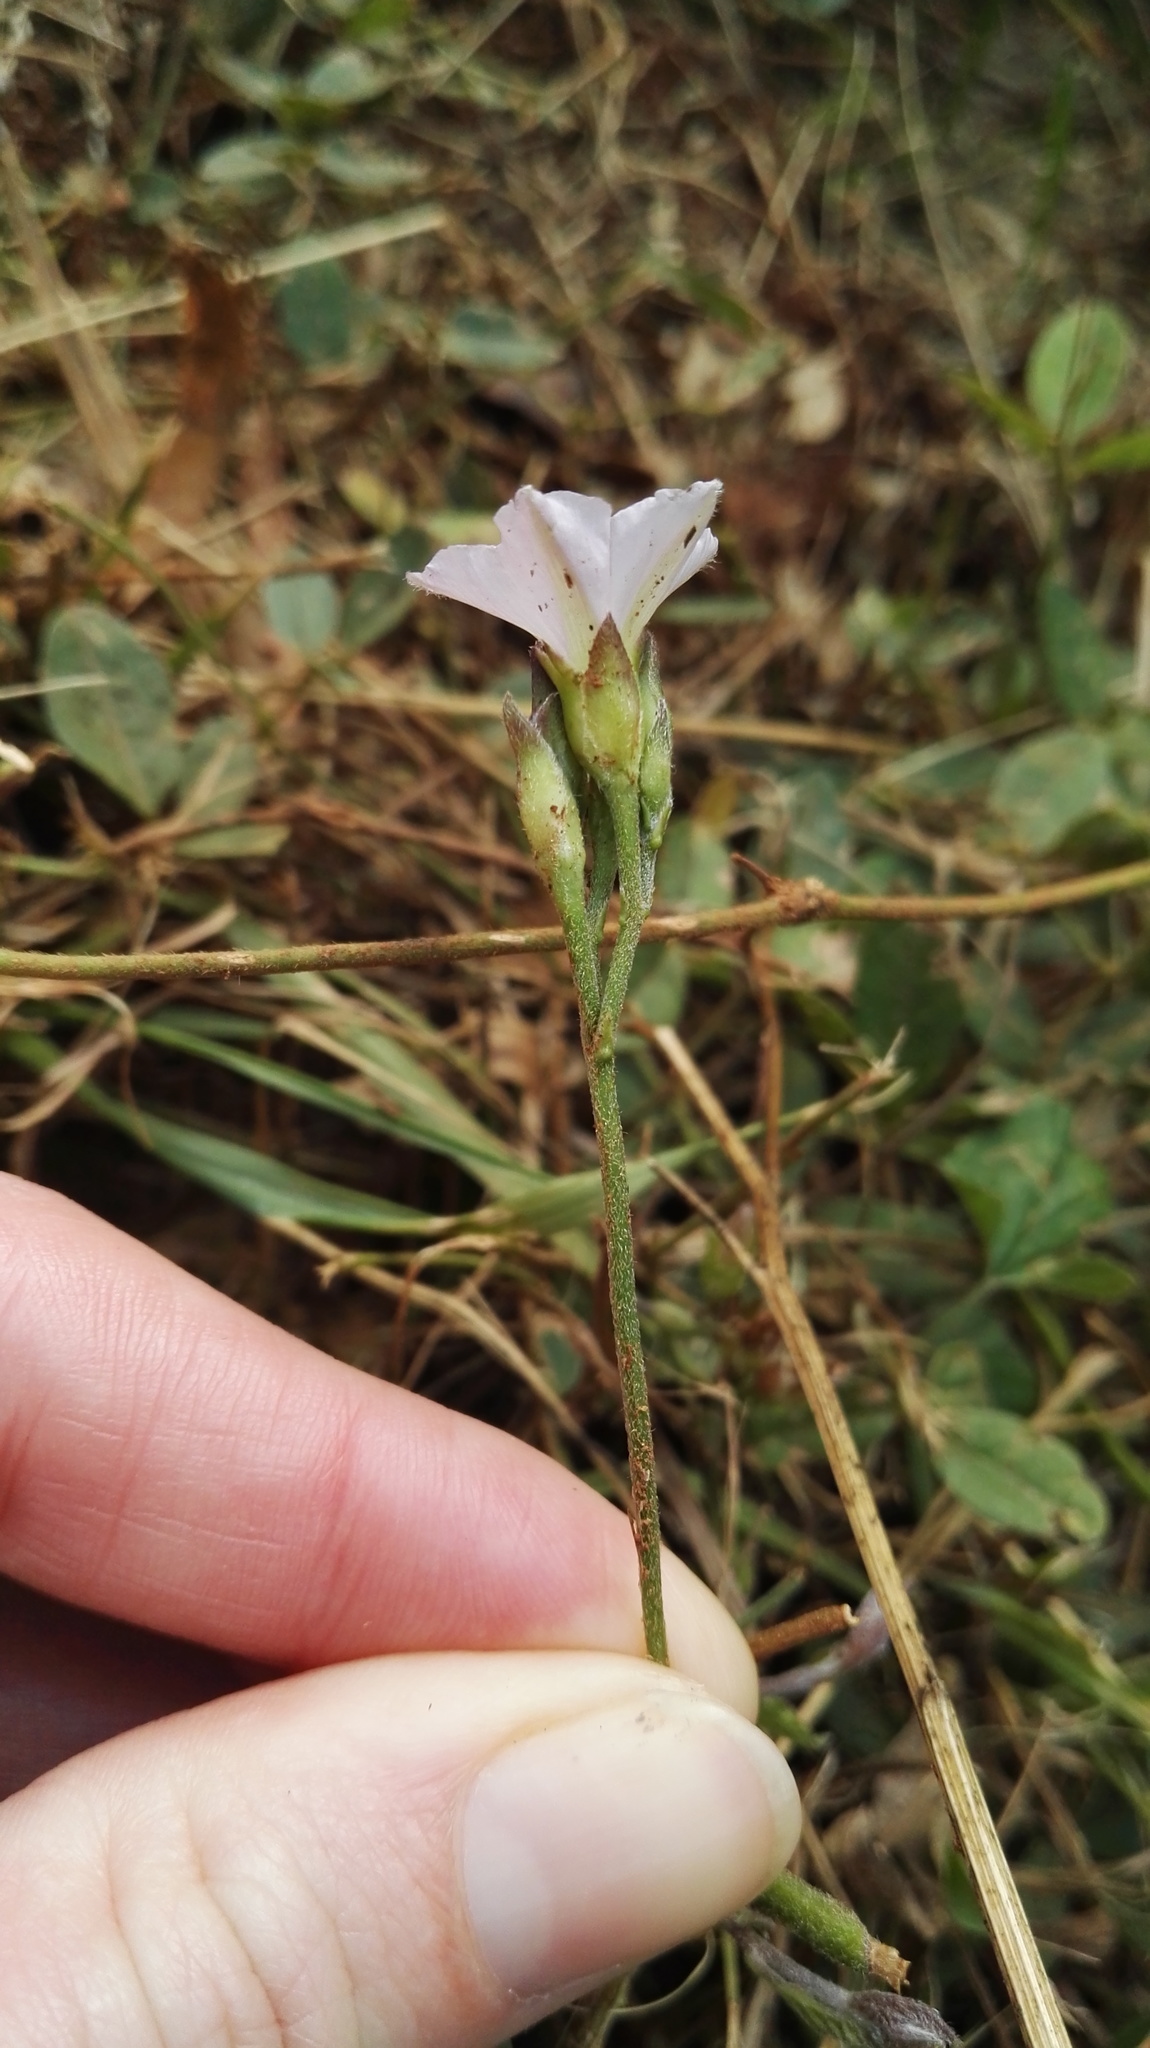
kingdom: Plantae
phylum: Tracheophyta
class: Magnoliopsida
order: Solanales
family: Convolvulaceae
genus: Convolvulus
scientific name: Convolvulus sagittatus
